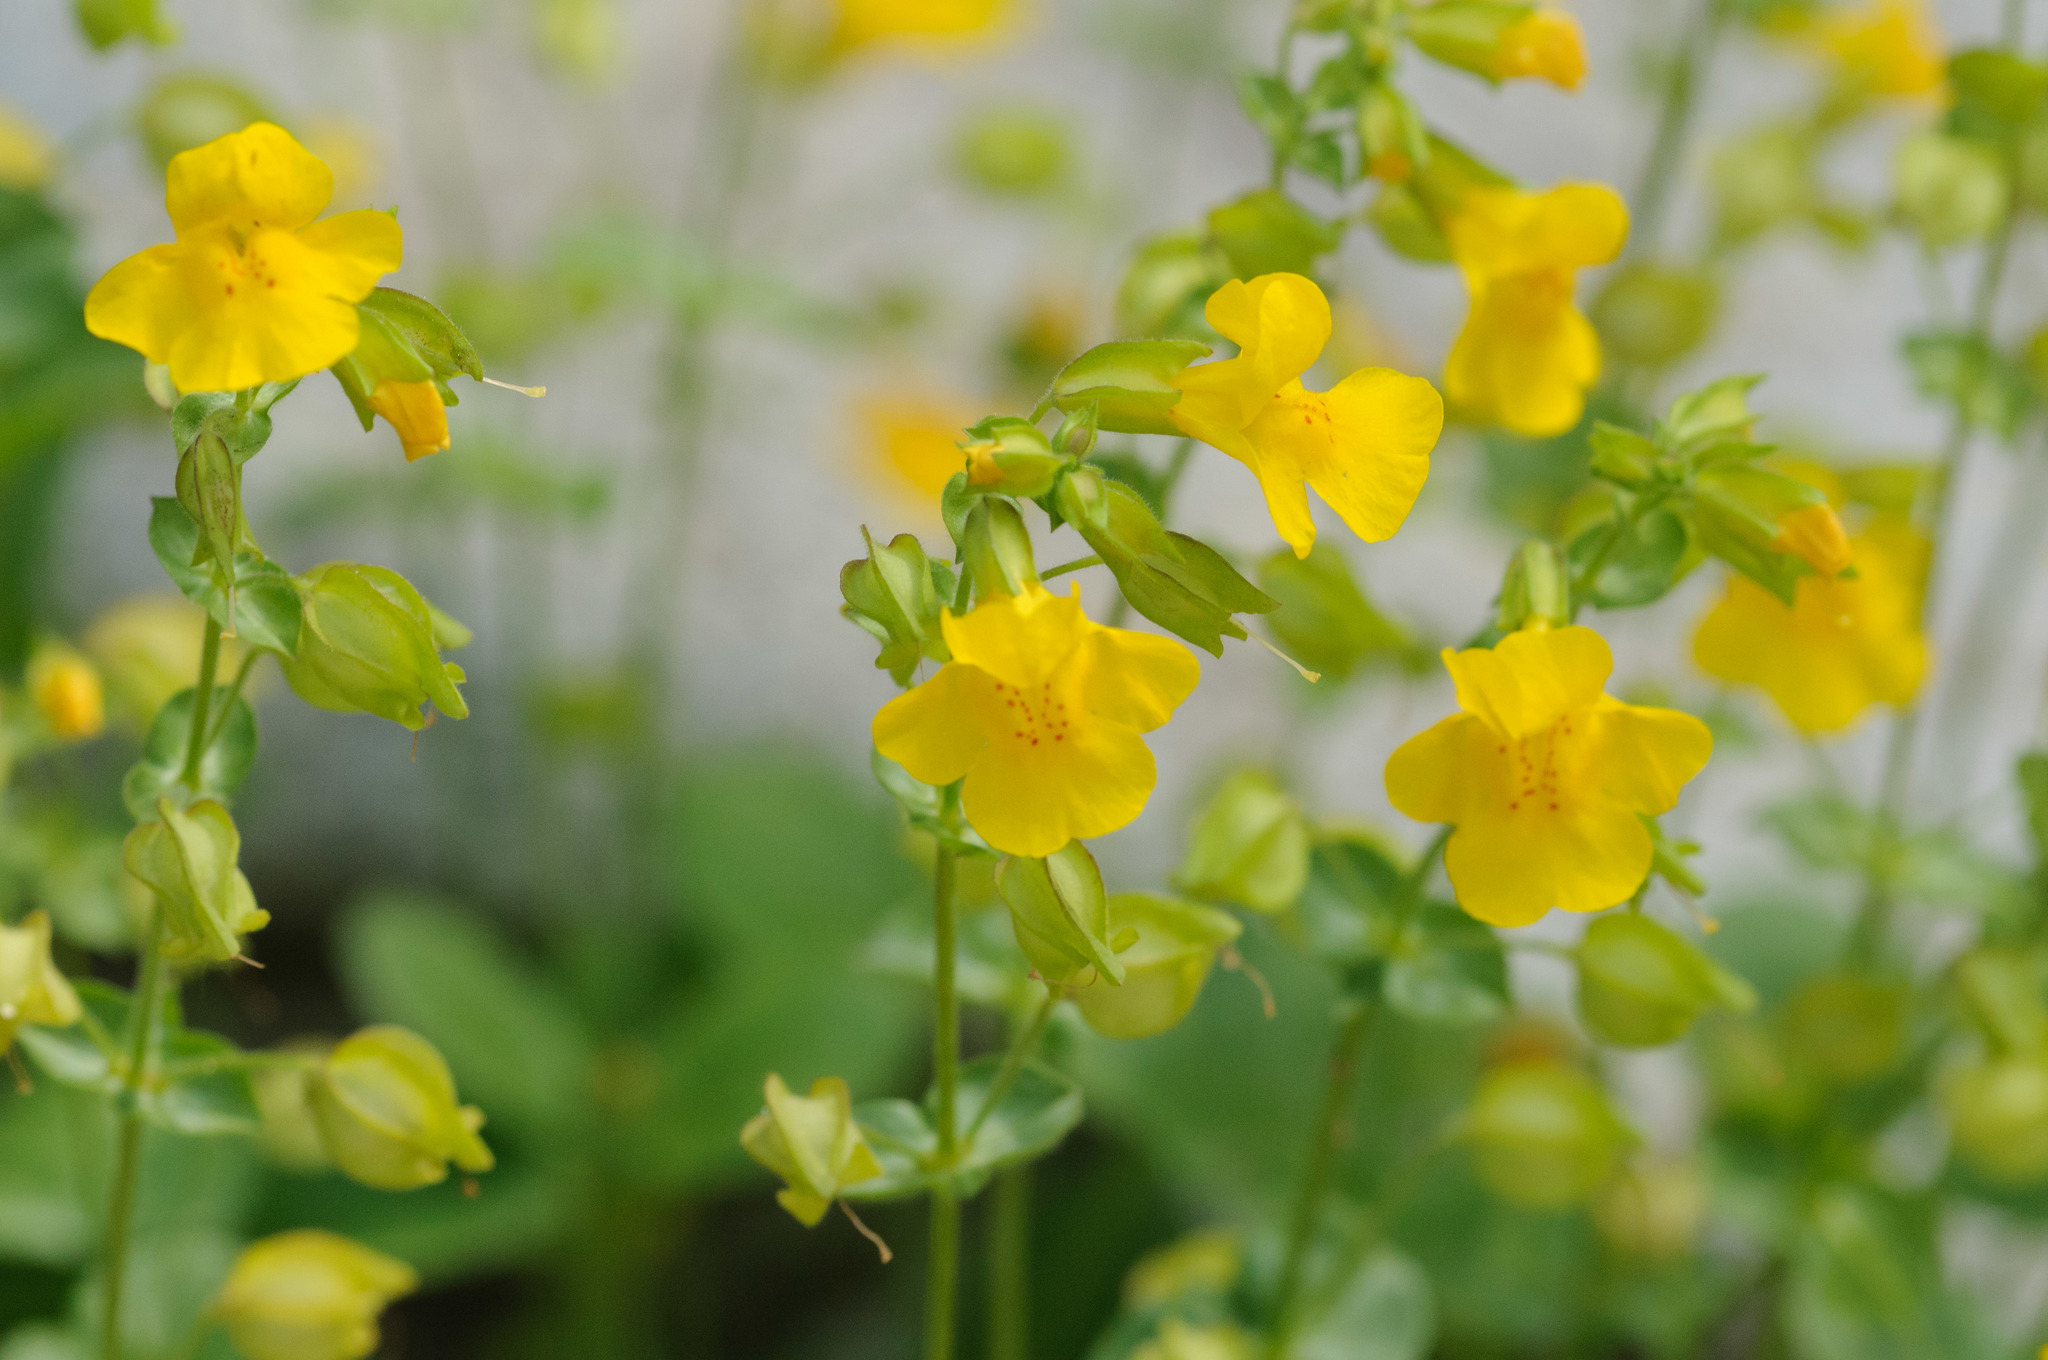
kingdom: Plantae
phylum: Tracheophyta
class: Magnoliopsida
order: Lamiales
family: Phrymaceae
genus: Erythranthe
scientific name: Erythranthe guttata
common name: Monkeyflower
